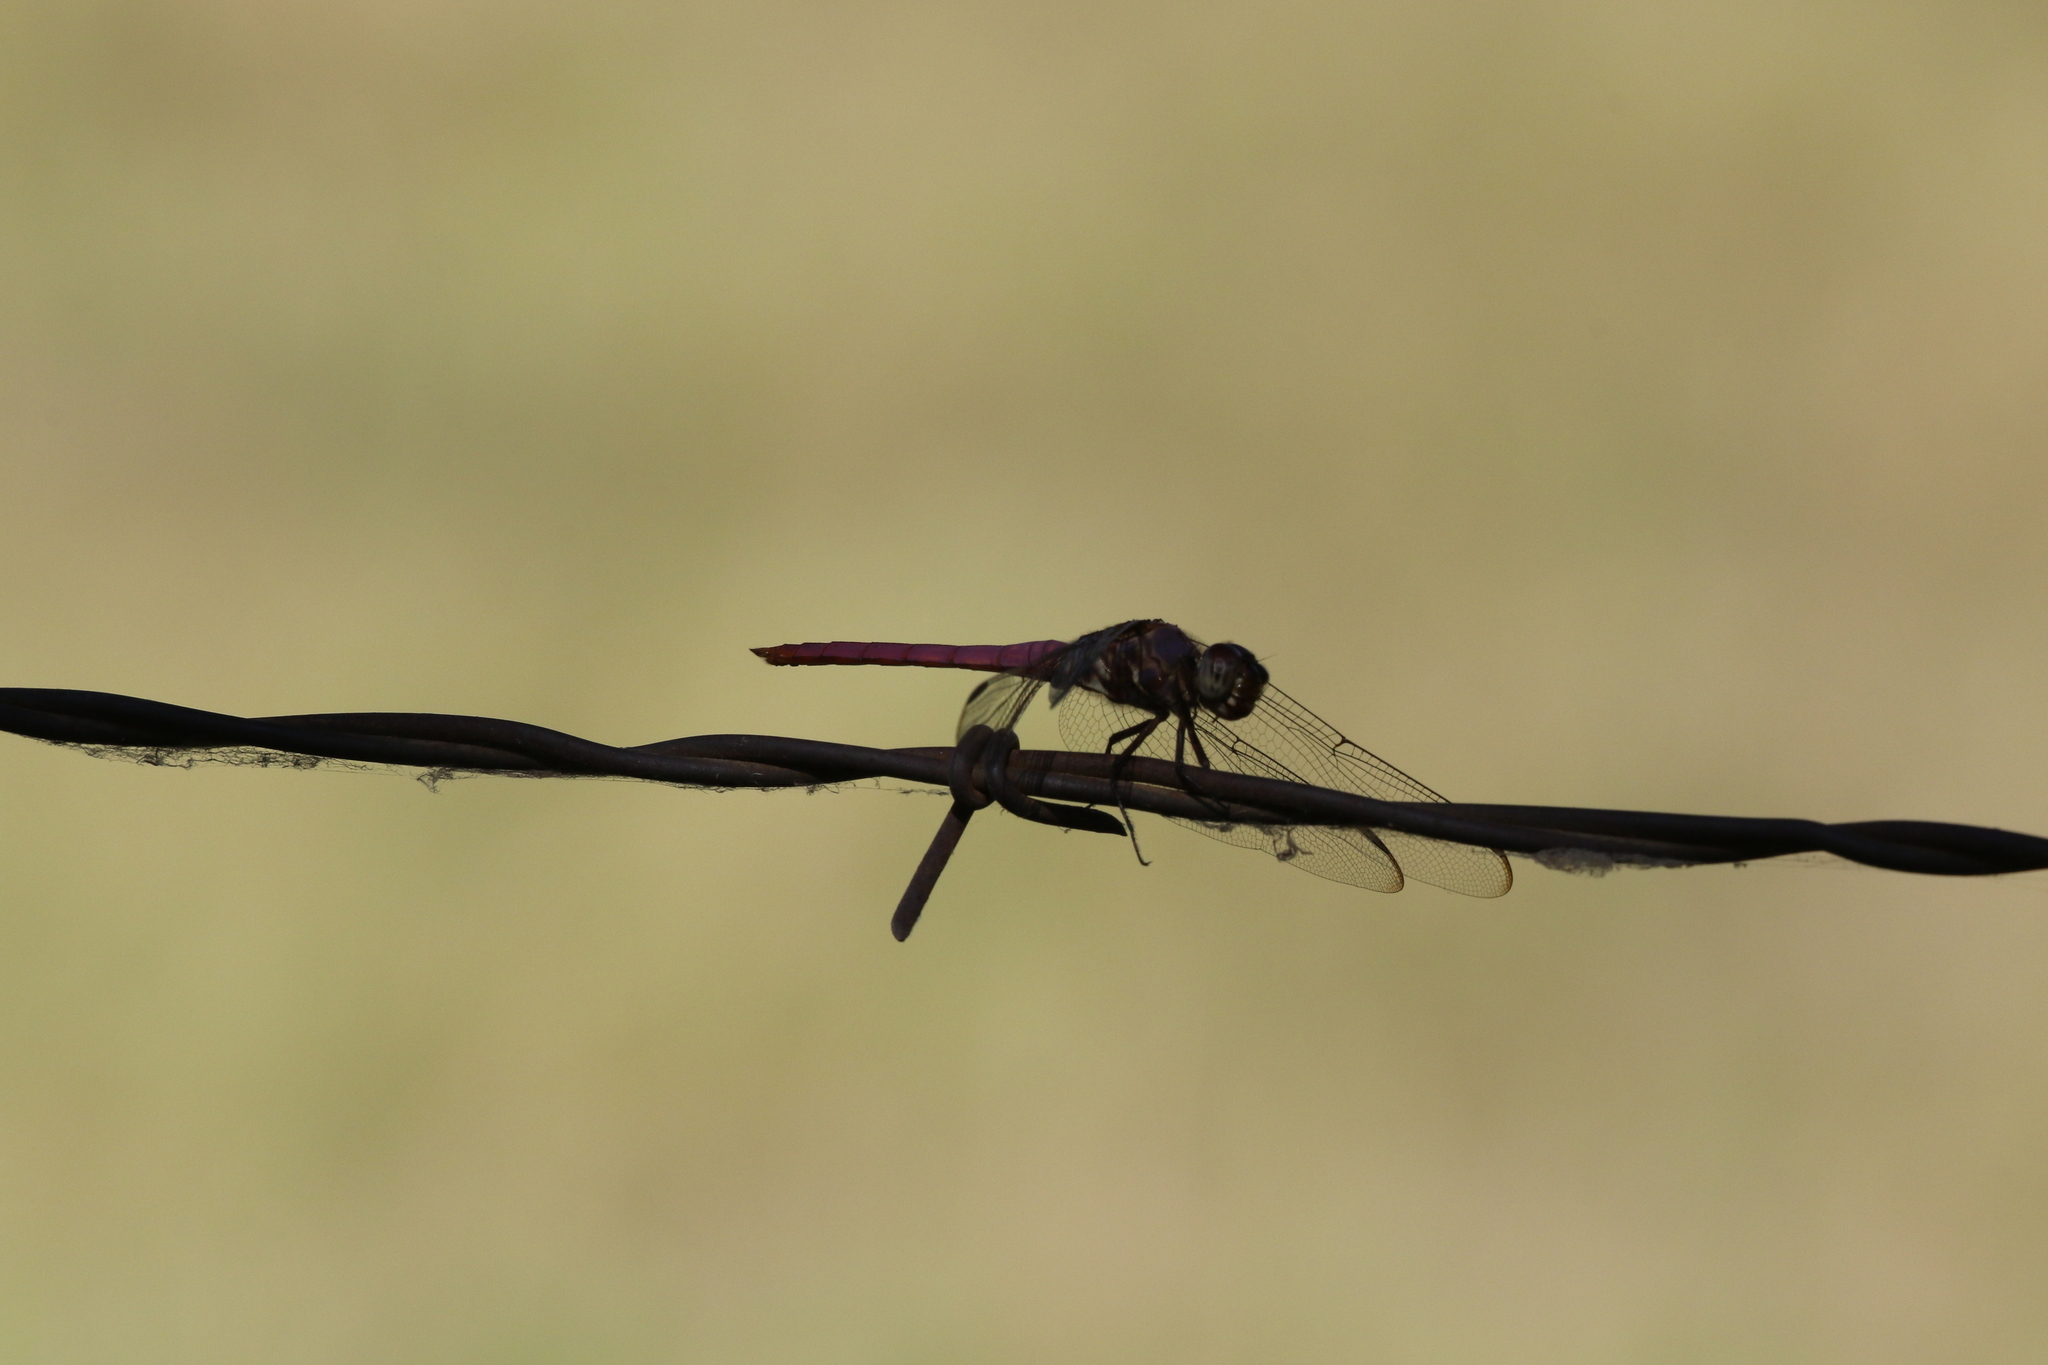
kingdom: Animalia
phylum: Arthropoda
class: Insecta
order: Odonata
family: Libellulidae
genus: Orthemis
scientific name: Orthemis ferruginea
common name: Roseate skimmer
